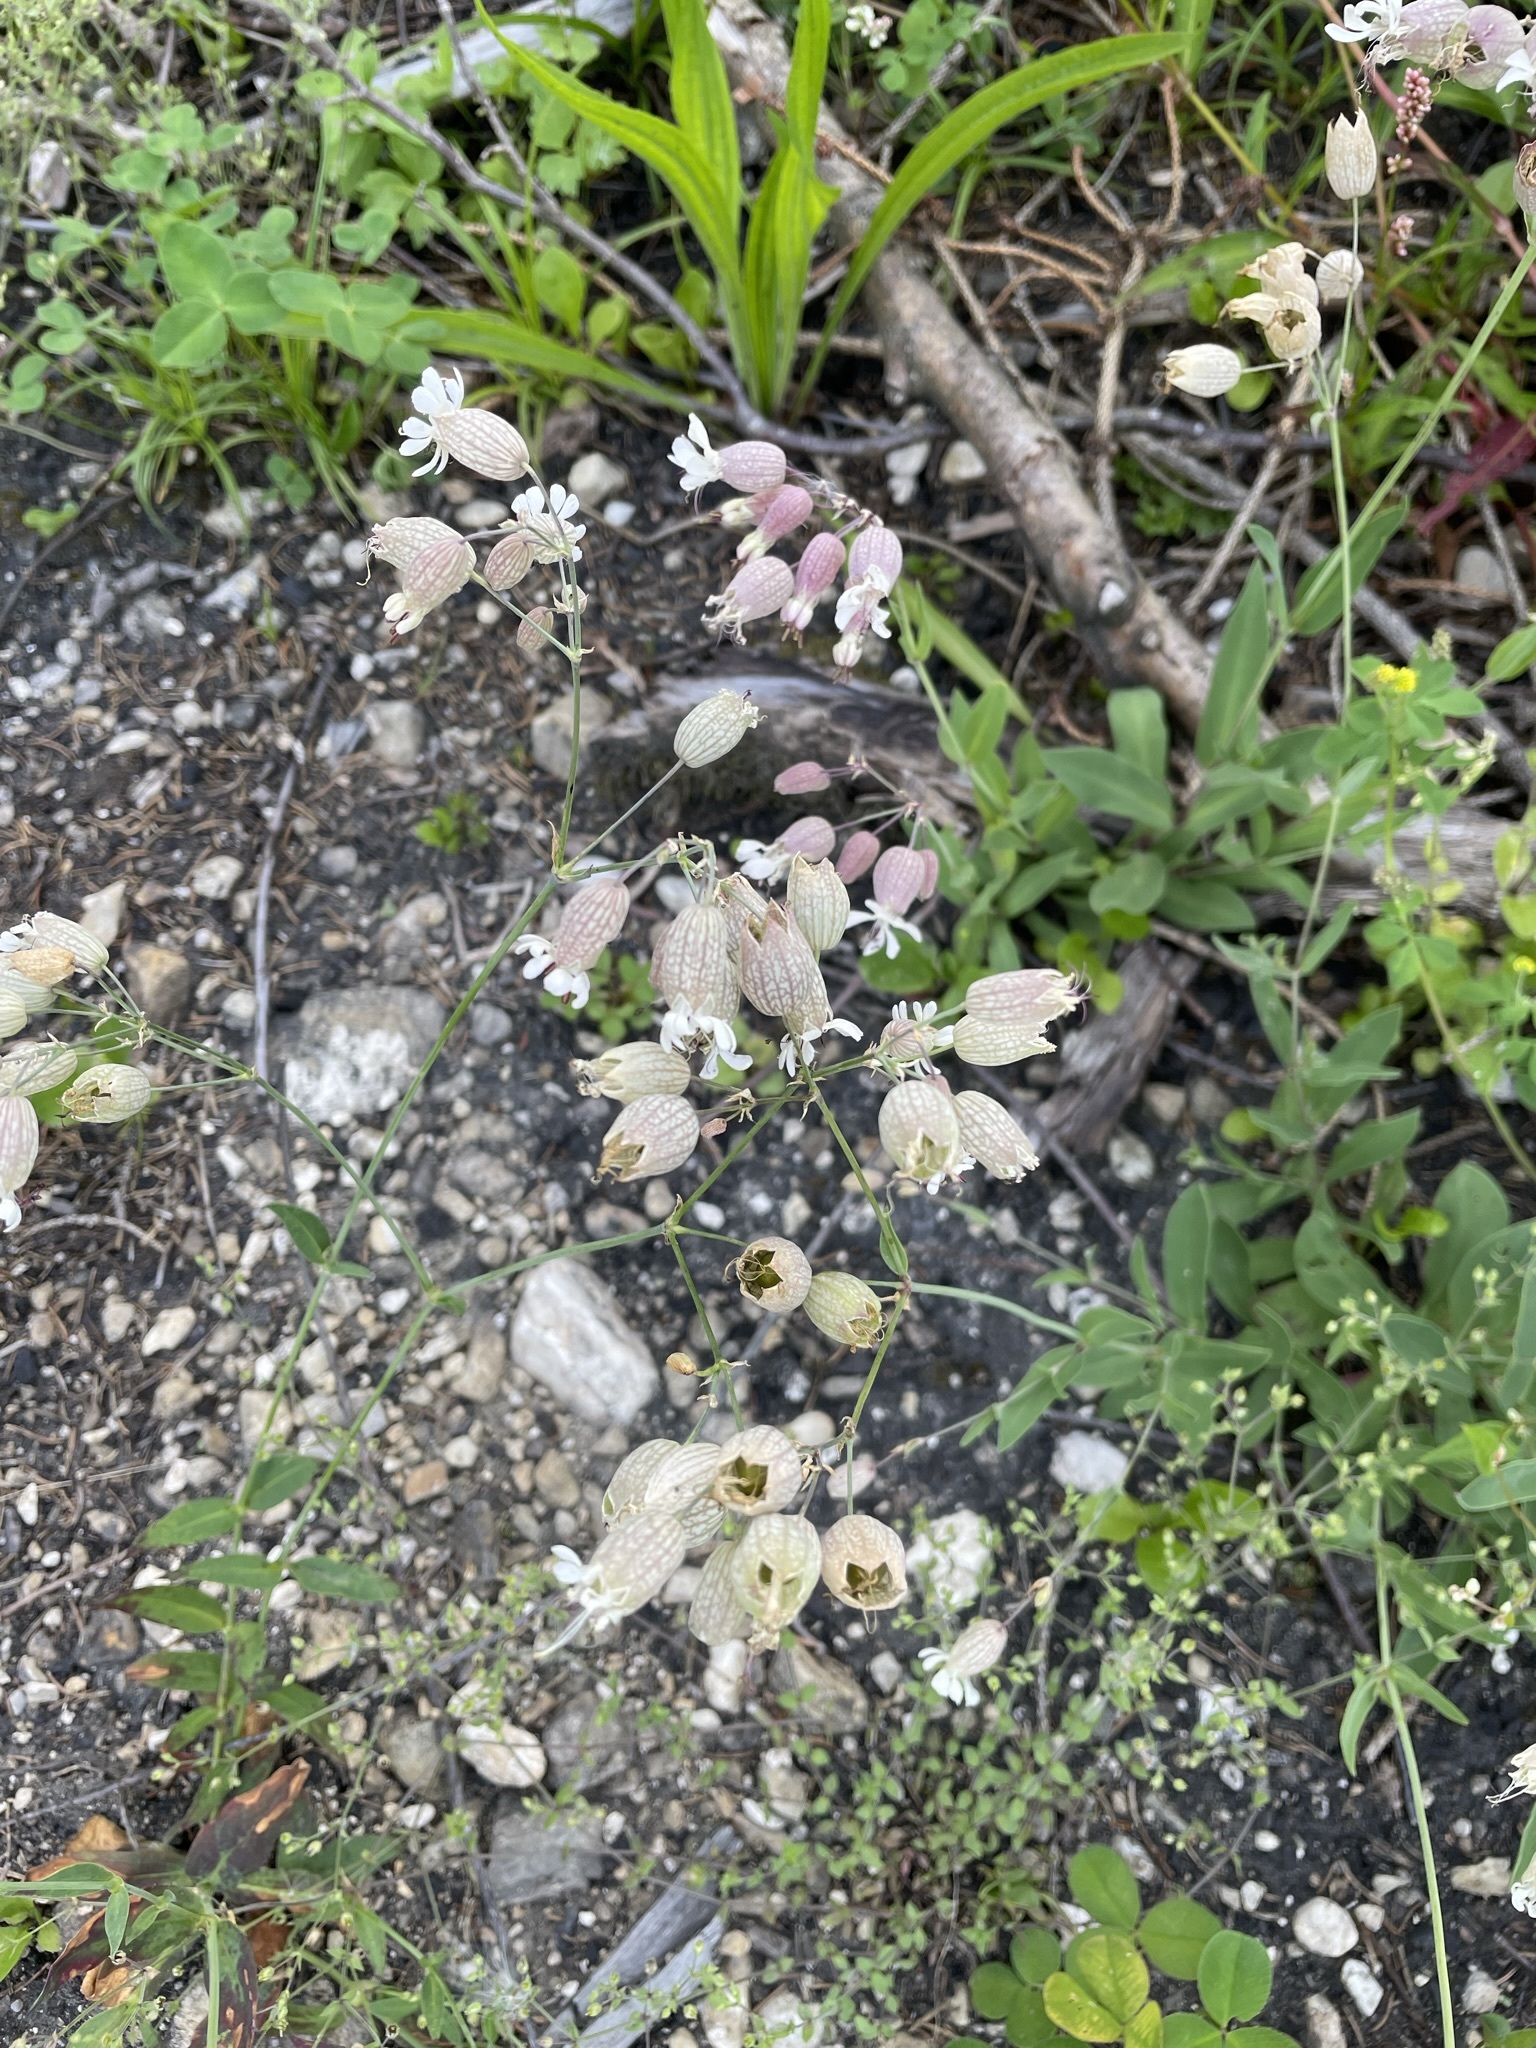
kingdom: Plantae
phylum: Tracheophyta
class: Magnoliopsida
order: Caryophyllales
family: Caryophyllaceae
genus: Silene
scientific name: Silene vulgaris
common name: Bladder campion
